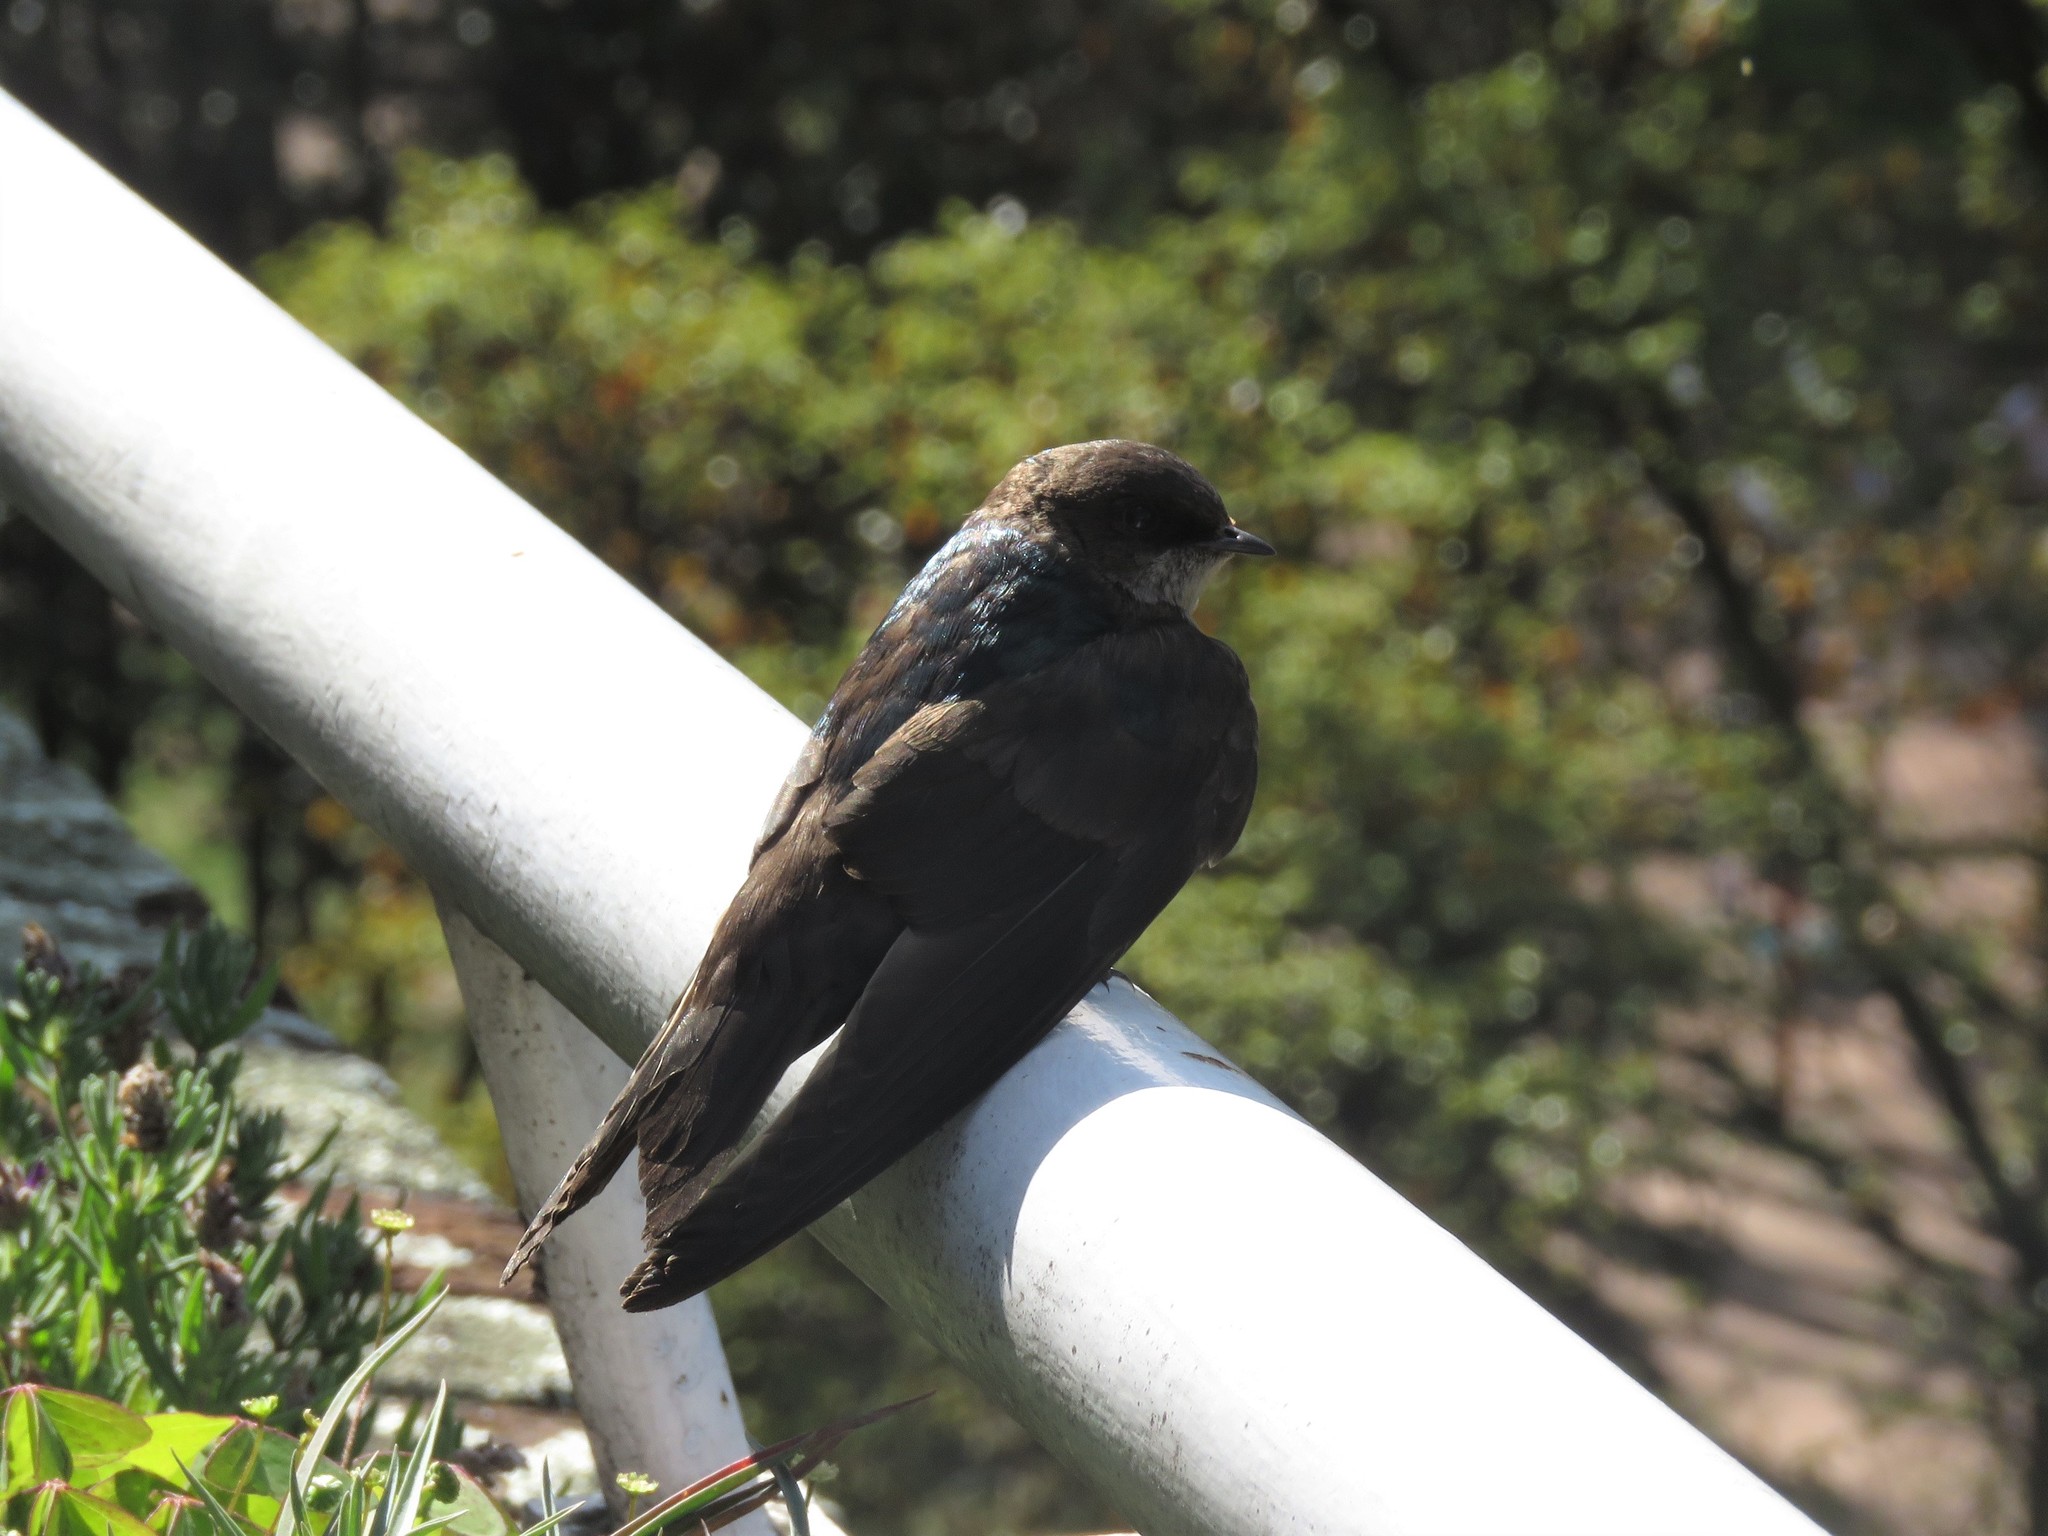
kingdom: Animalia
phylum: Chordata
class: Aves
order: Passeriformes
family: Hirundinidae
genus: Notiochelidon
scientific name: Notiochelidon murina
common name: Brown-bellied swallow
